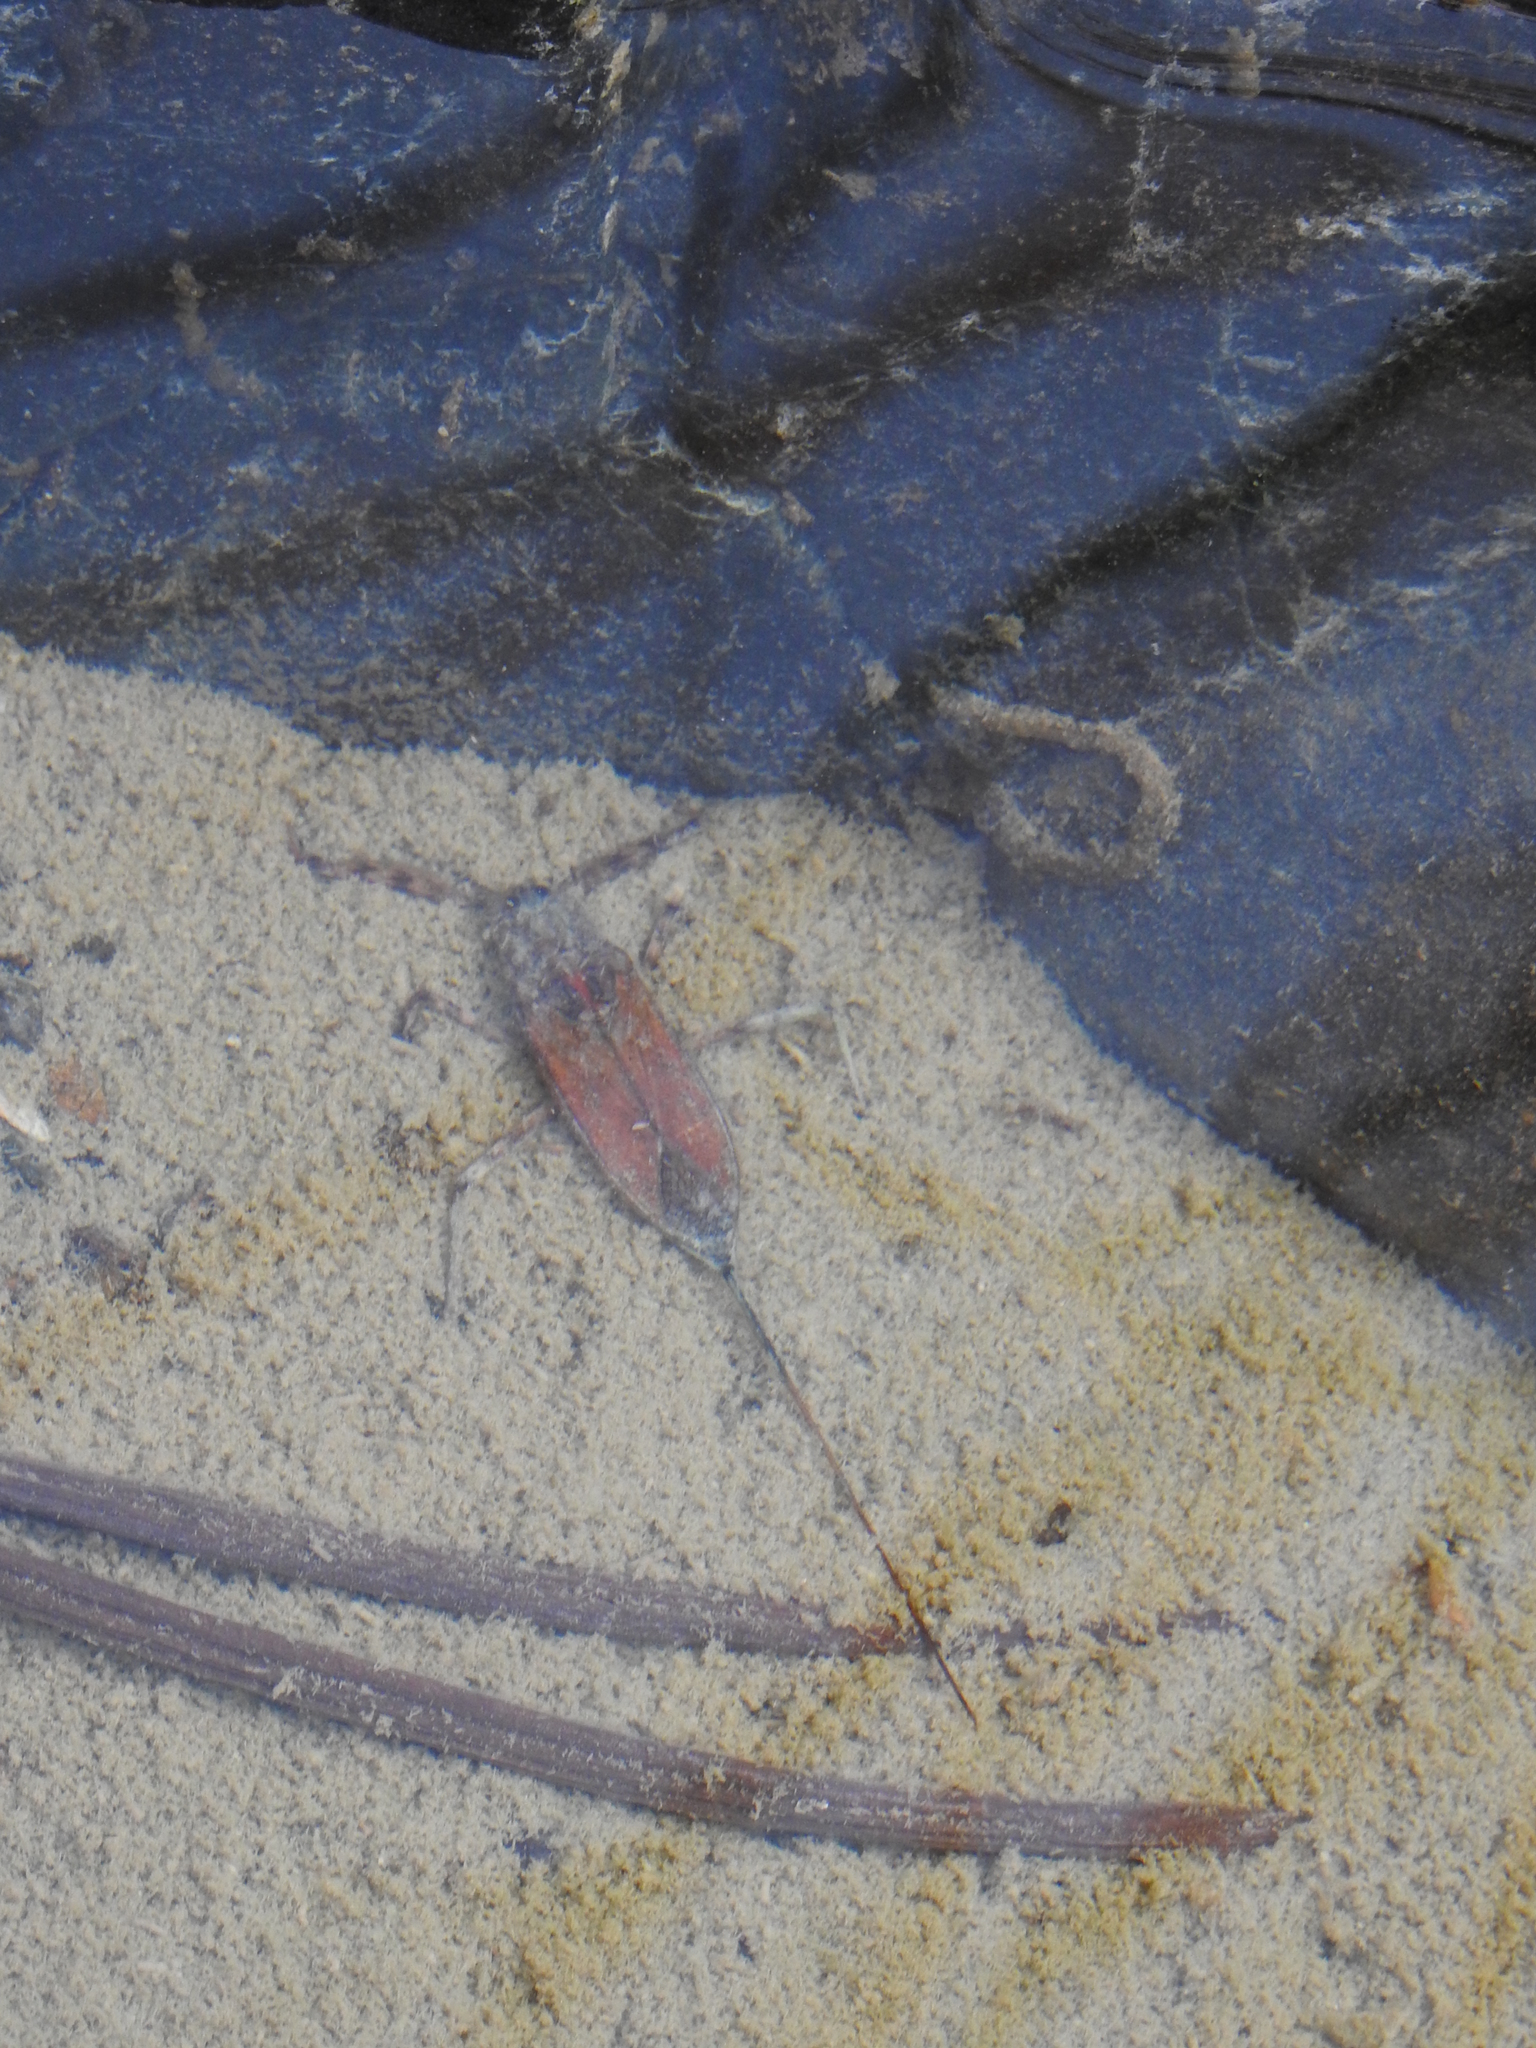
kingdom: Animalia
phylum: Arthropoda
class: Insecta
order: Hemiptera
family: Nepidae
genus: Laccotrephes
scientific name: Laccotrephes fabricii
